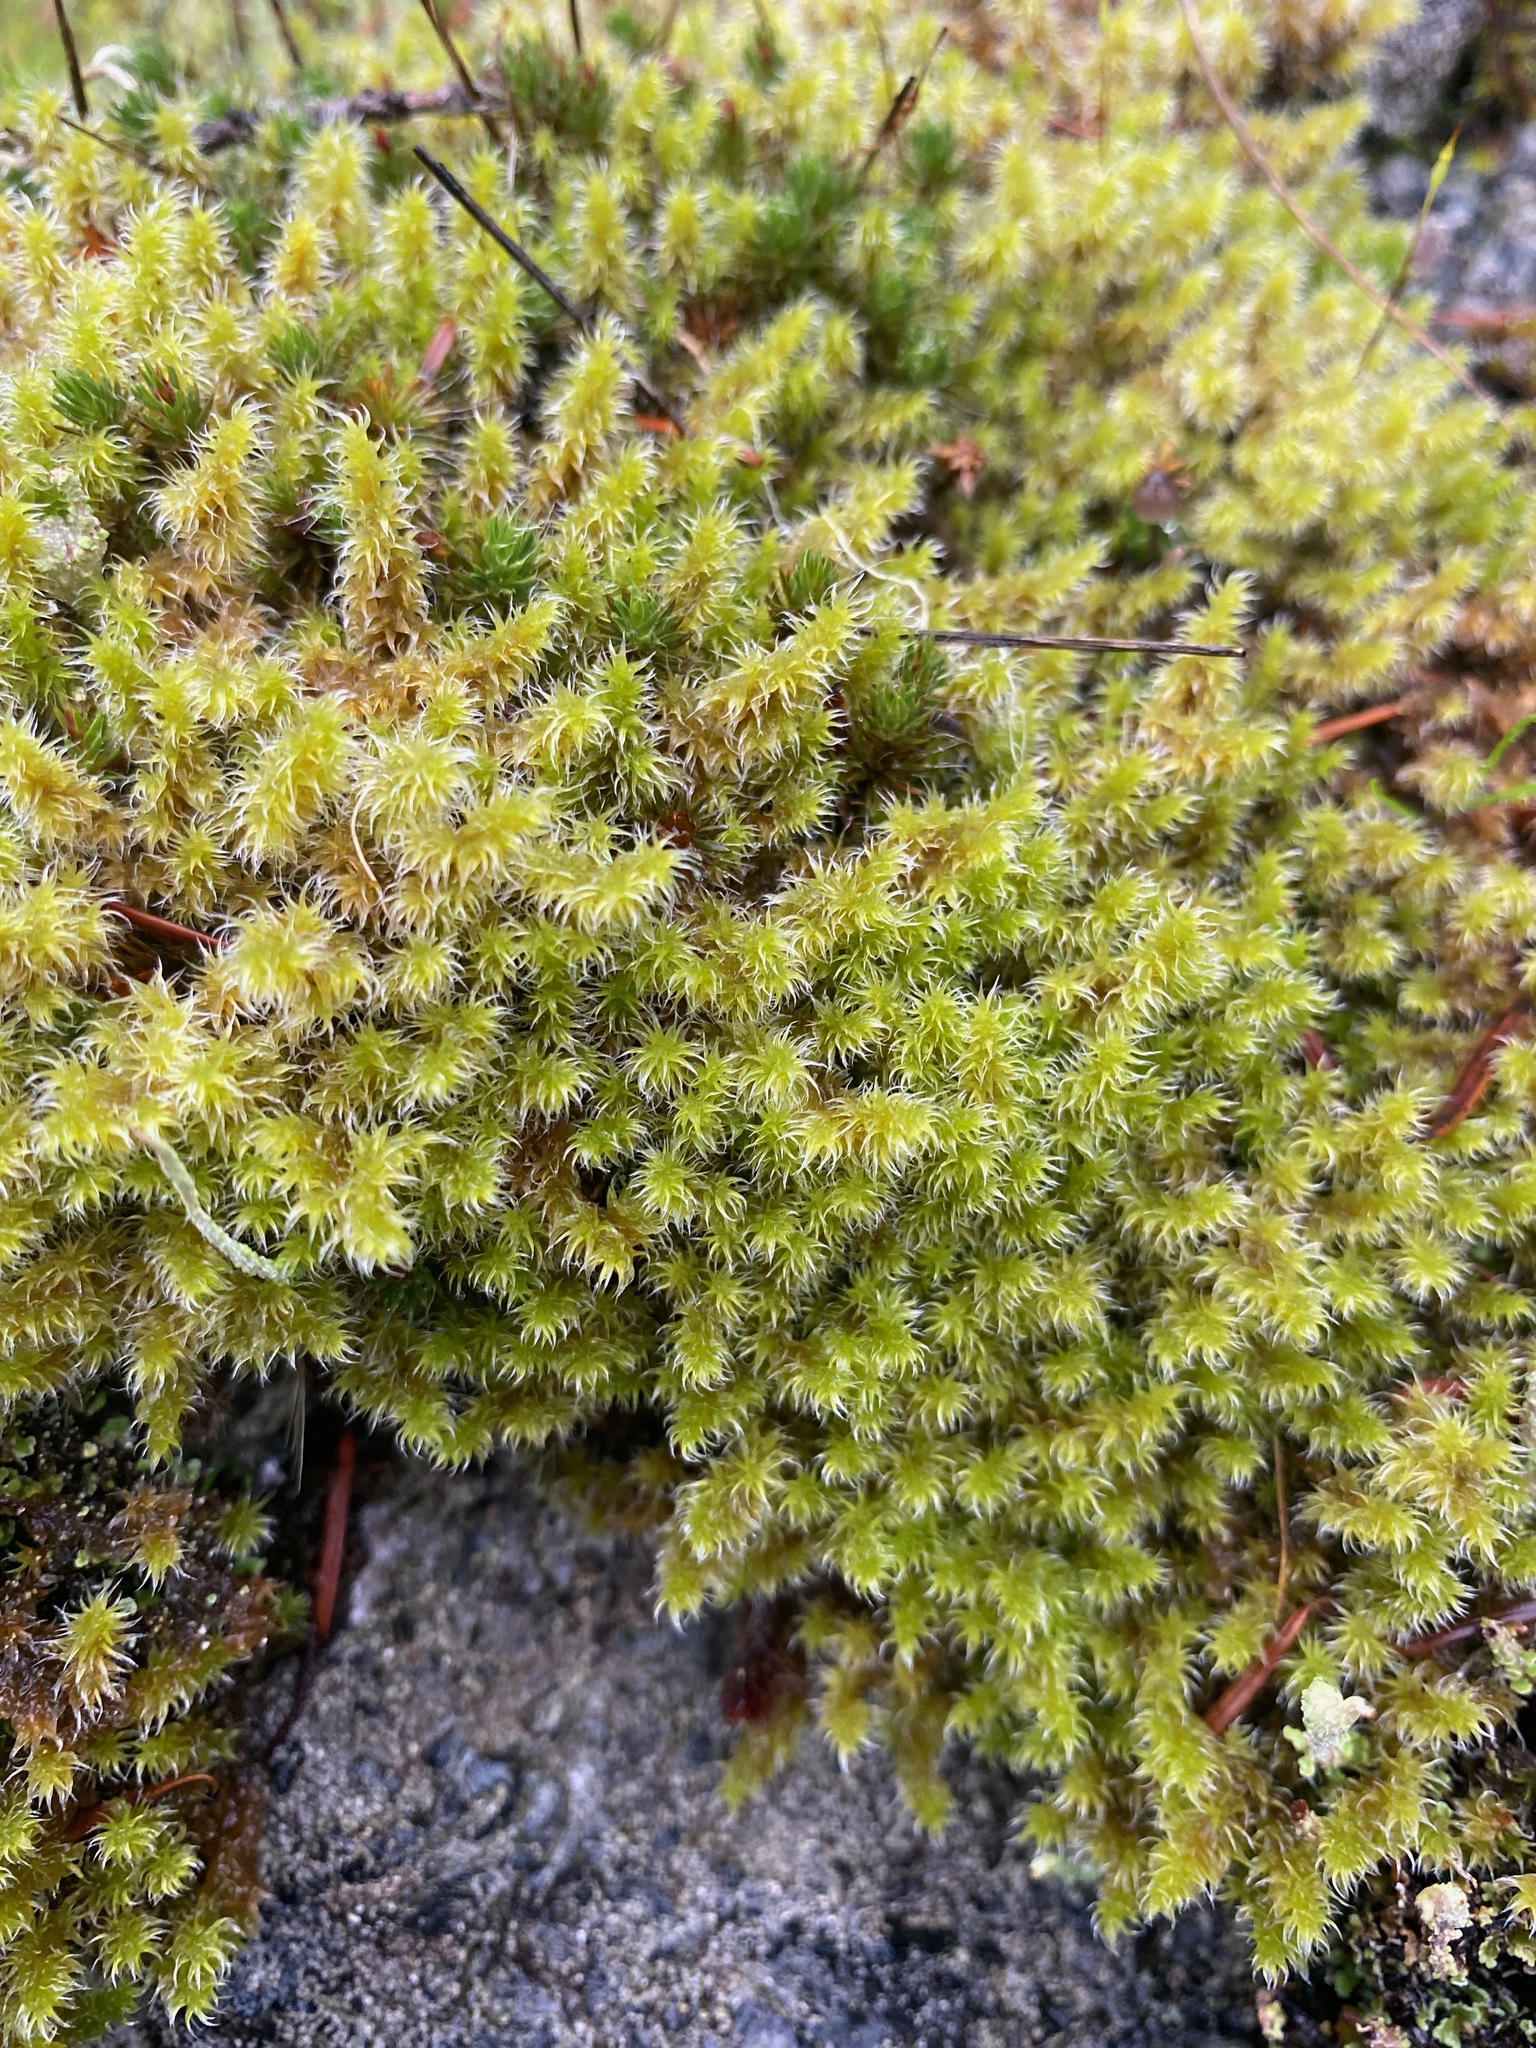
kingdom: Plantae
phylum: Bryophyta
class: Bryopsida
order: Grimmiales
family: Grimmiaceae
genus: Niphotrichum
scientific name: Niphotrichum elongatum
